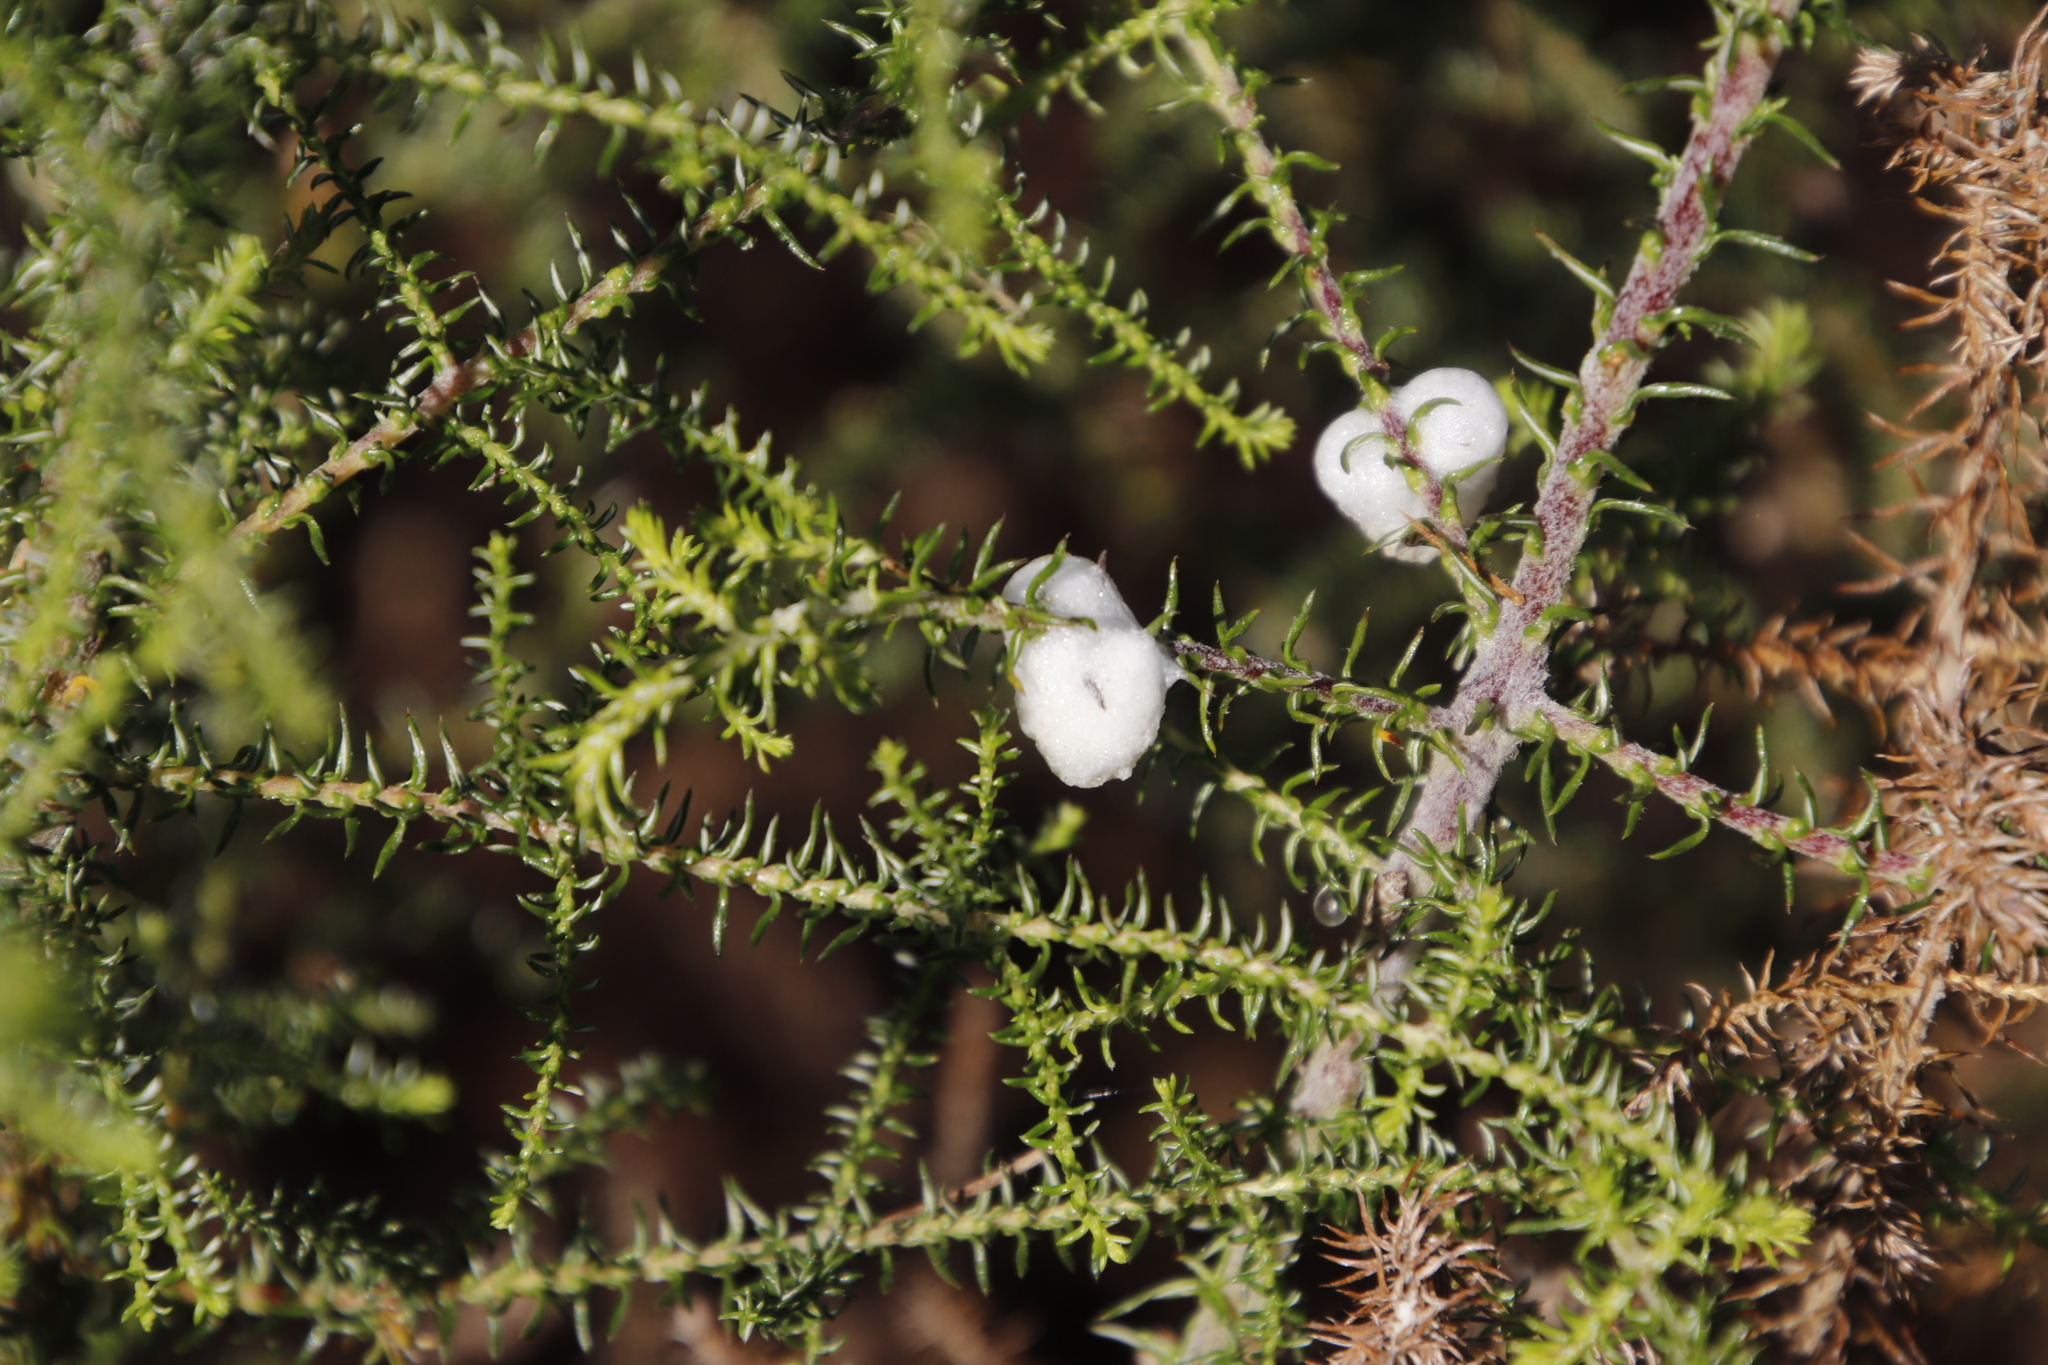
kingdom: Plantae
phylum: Tracheophyta
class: Magnoliopsida
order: Asterales
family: Asteraceae
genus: Seriphium
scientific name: Seriphium cinereum
